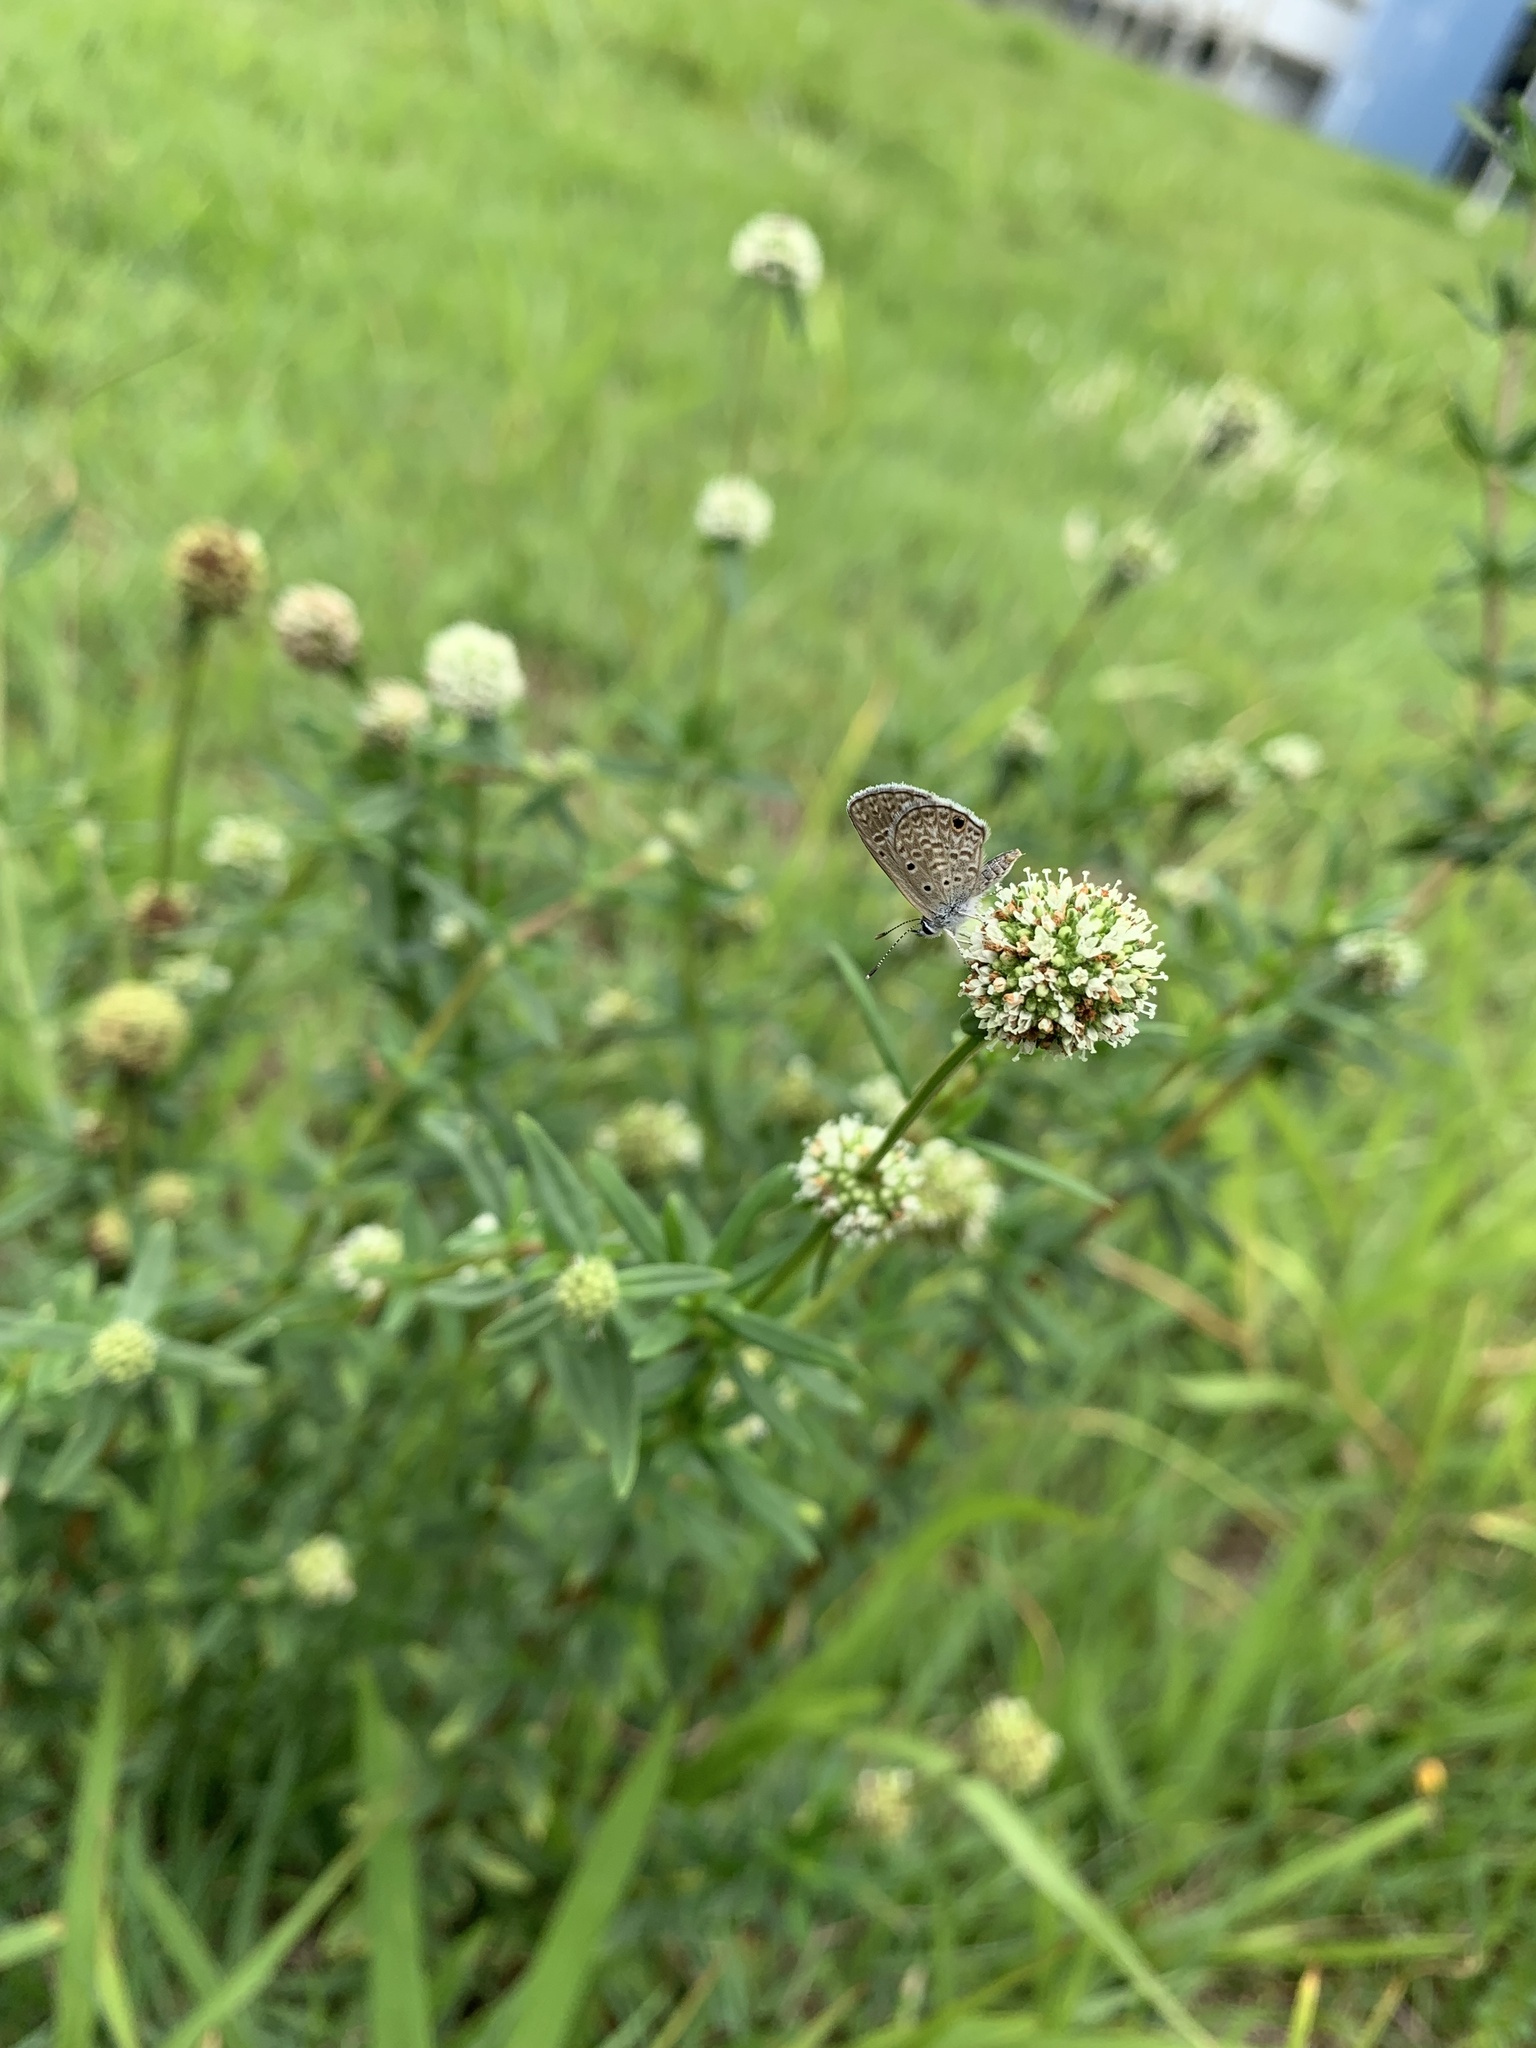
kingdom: Animalia
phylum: Arthropoda
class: Insecta
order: Lepidoptera
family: Lycaenidae
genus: Hemiargus
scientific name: Hemiargus hanno
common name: Common blue
